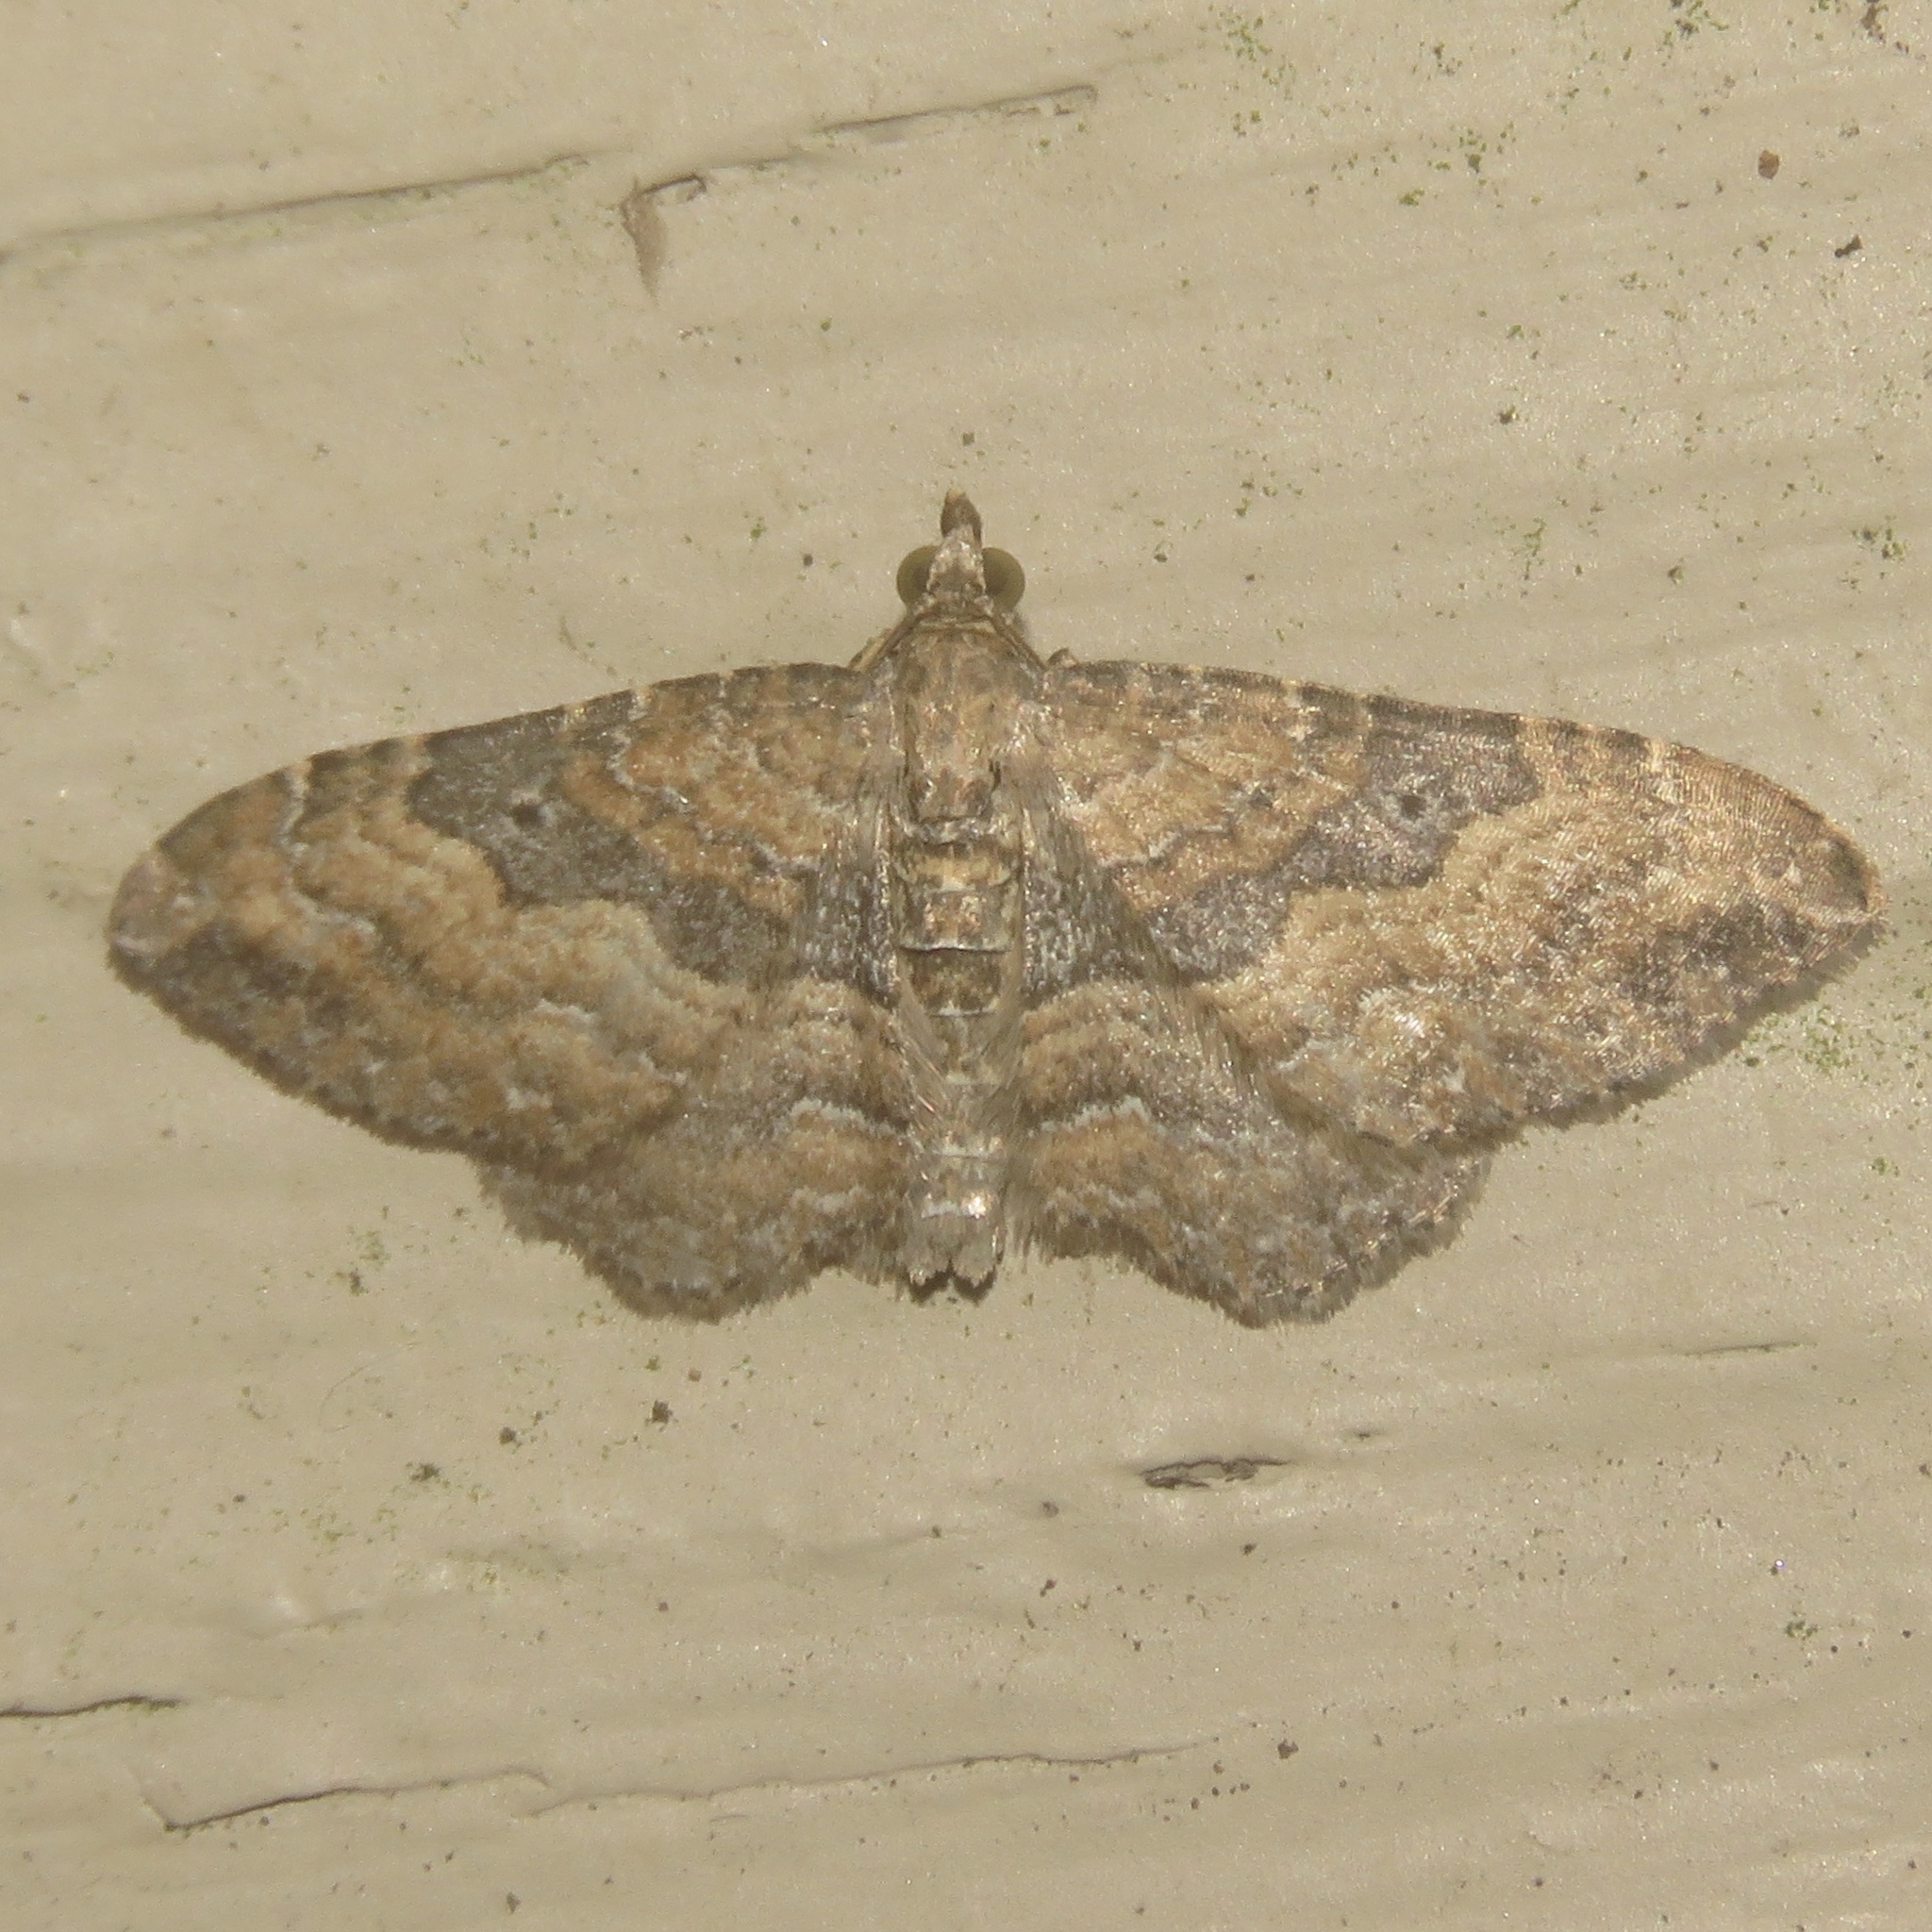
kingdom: Animalia
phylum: Arthropoda
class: Insecta
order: Lepidoptera
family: Geometridae
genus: Orthonama
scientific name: Orthonama obstipata
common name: The gem
